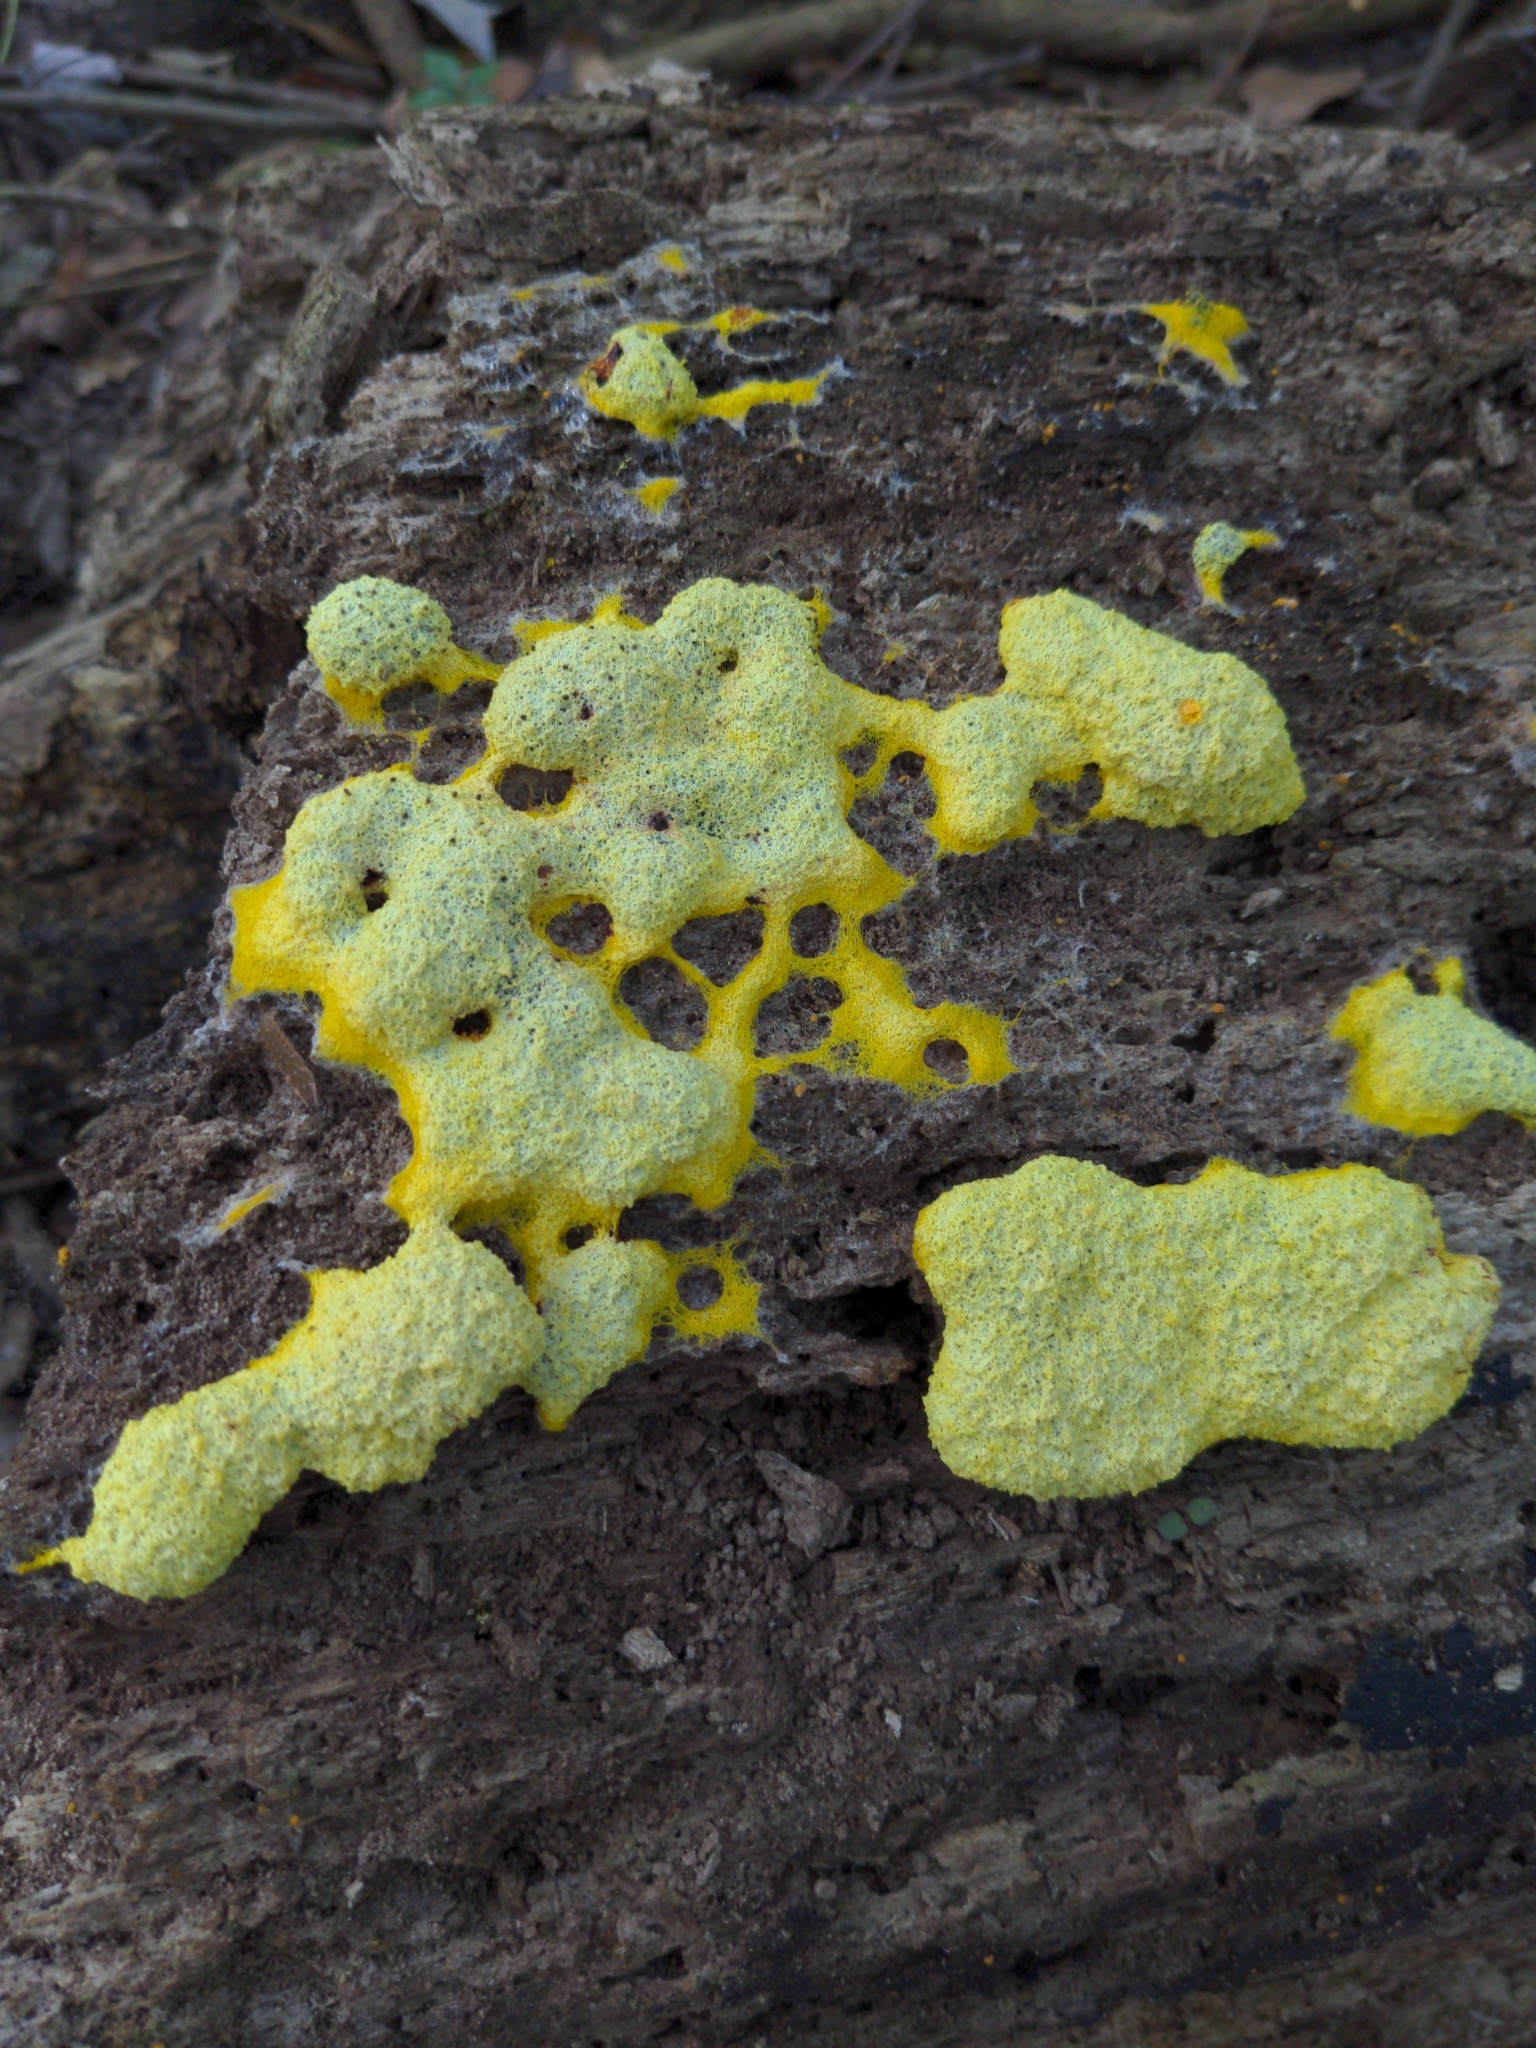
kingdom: Protozoa
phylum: Mycetozoa
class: Myxomycetes
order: Physarales
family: Physaraceae
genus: Fuligo
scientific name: Fuligo septica
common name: Dog vomit slime mold
